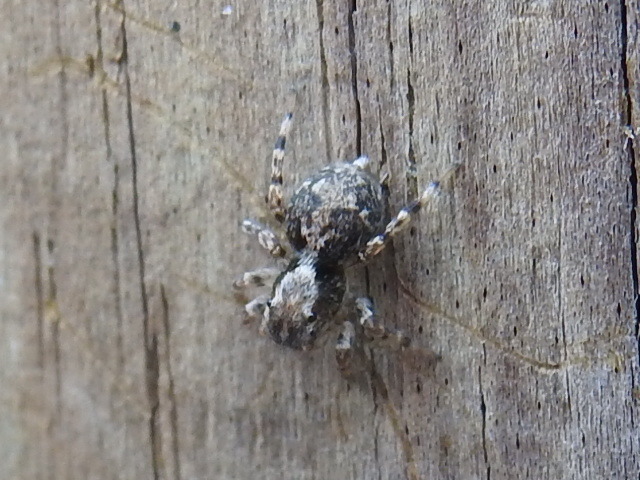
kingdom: Animalia
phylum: Arthropoda
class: Arachnida
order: Araneae
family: Salticidae
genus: Naphrys
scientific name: Naphrys pulex
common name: Flea jumping spider
